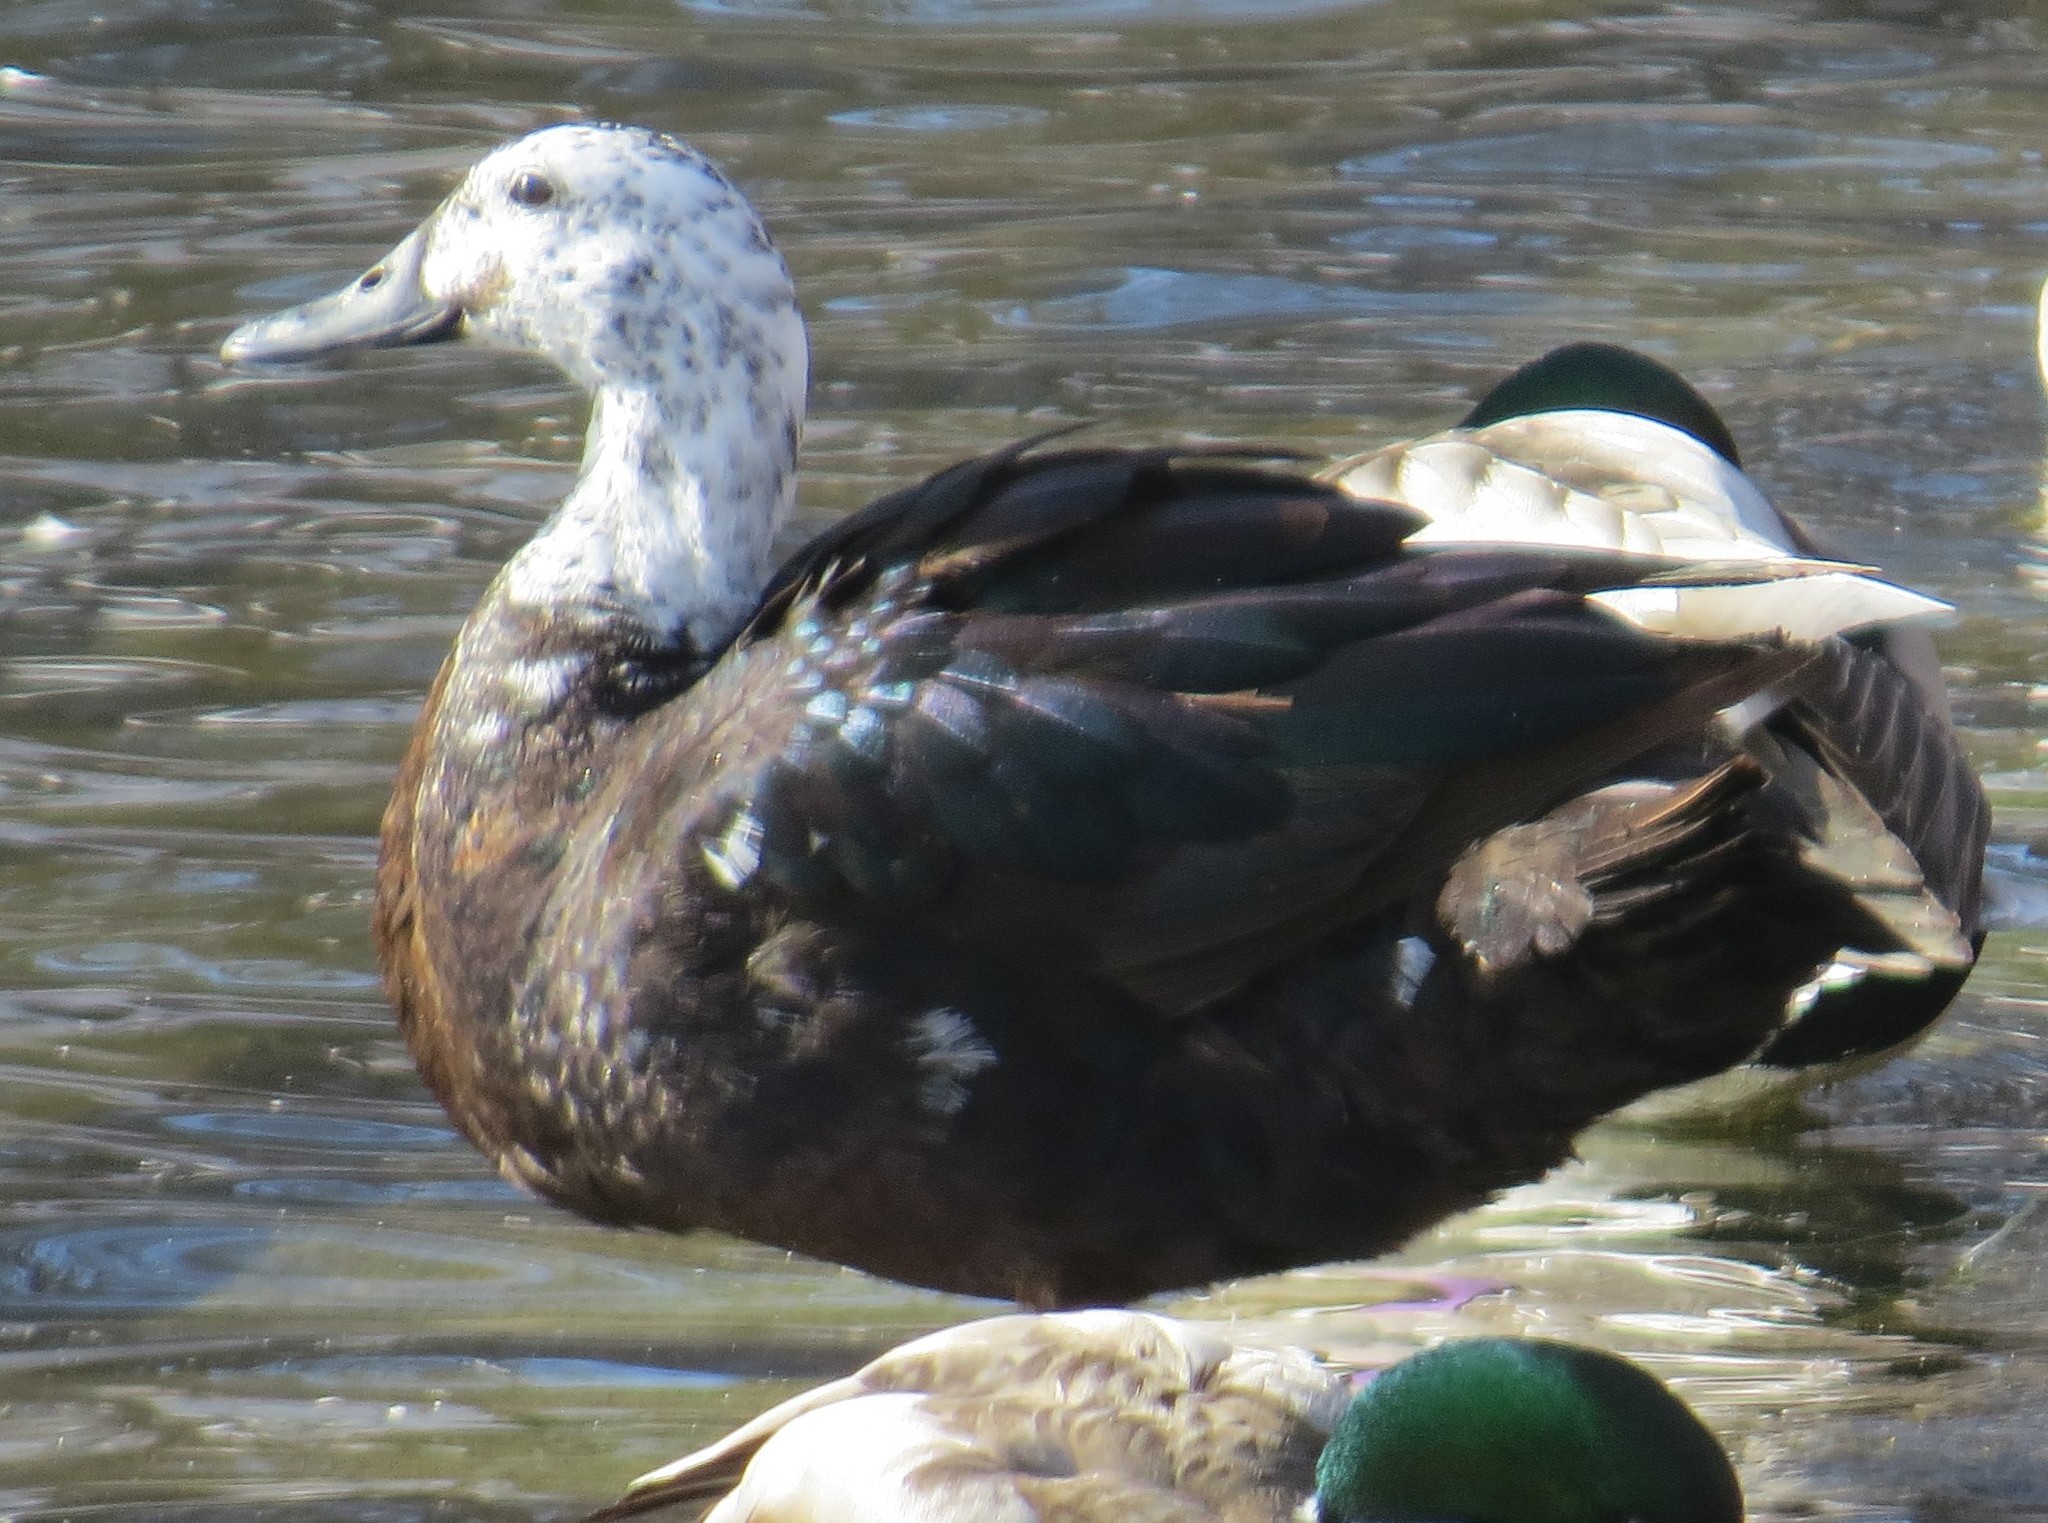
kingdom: Animalia
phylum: Chordata
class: Aves
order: Anseriformes
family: Anatidae
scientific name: Anatidae
